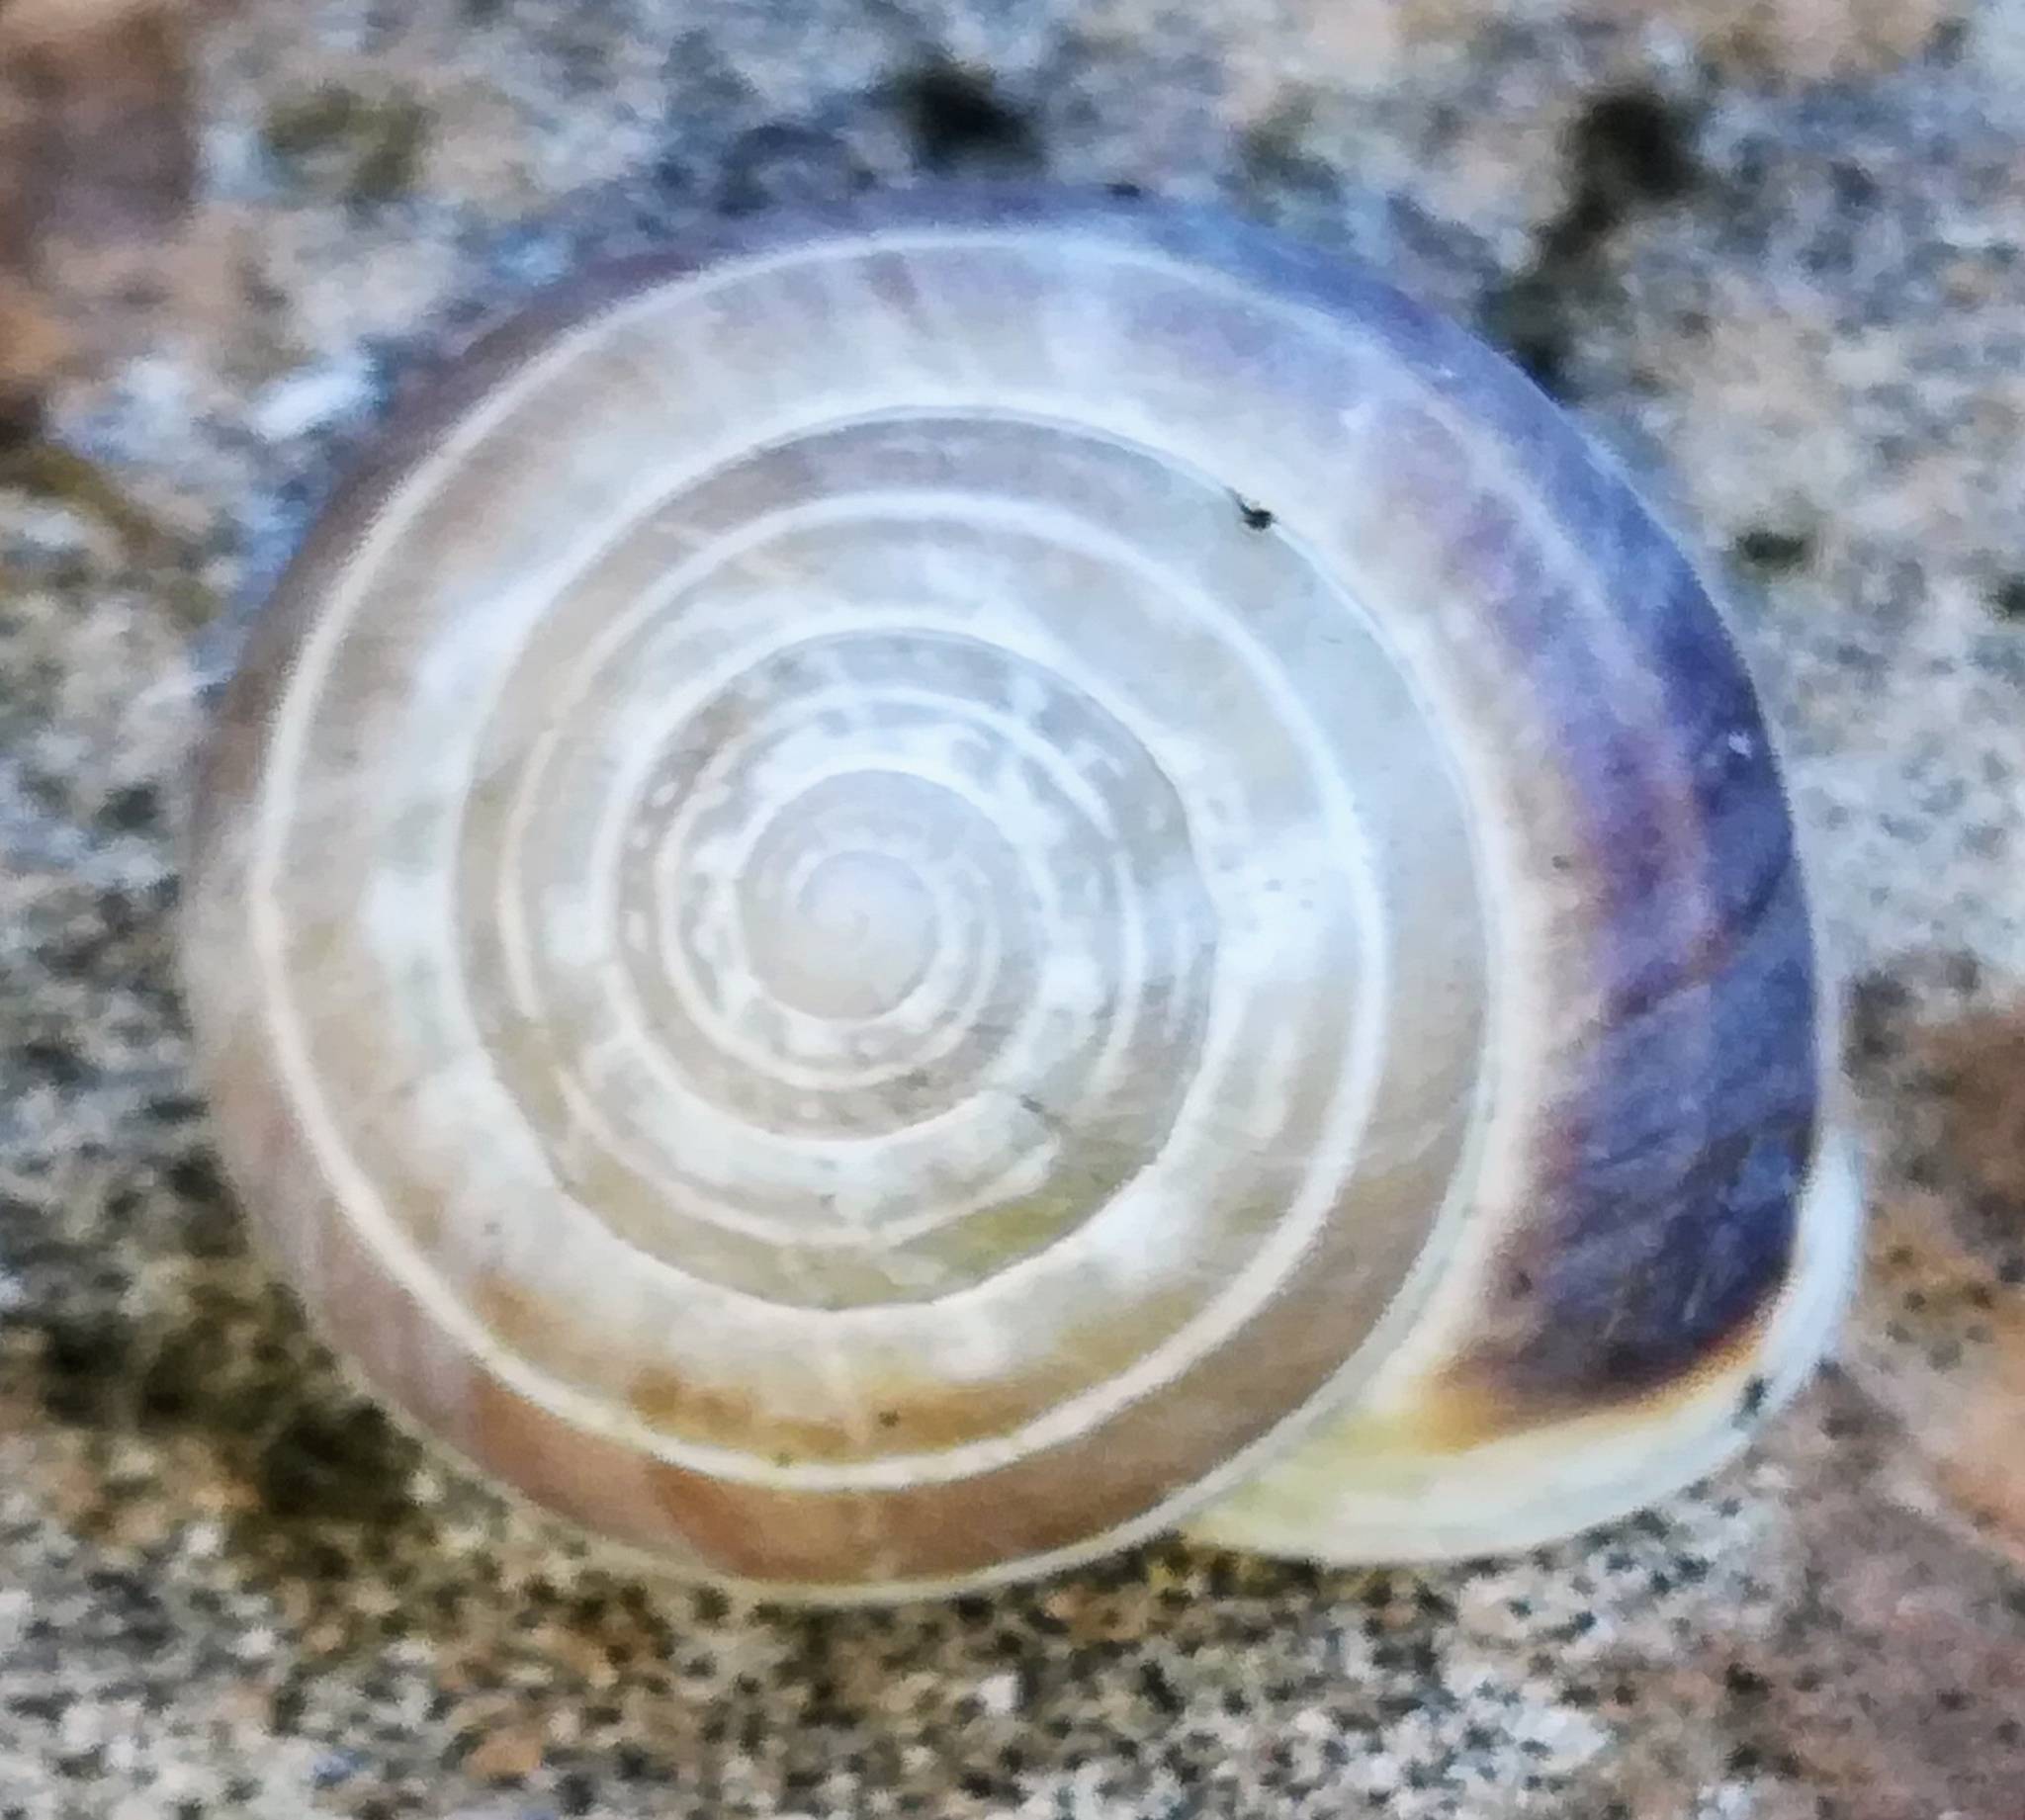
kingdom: Animalia
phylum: Mollusca
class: Gastropoda
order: Stylommatophora
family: Helicidae
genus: Eobania
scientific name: Eobania vermiculata
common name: Chocolateband snail
